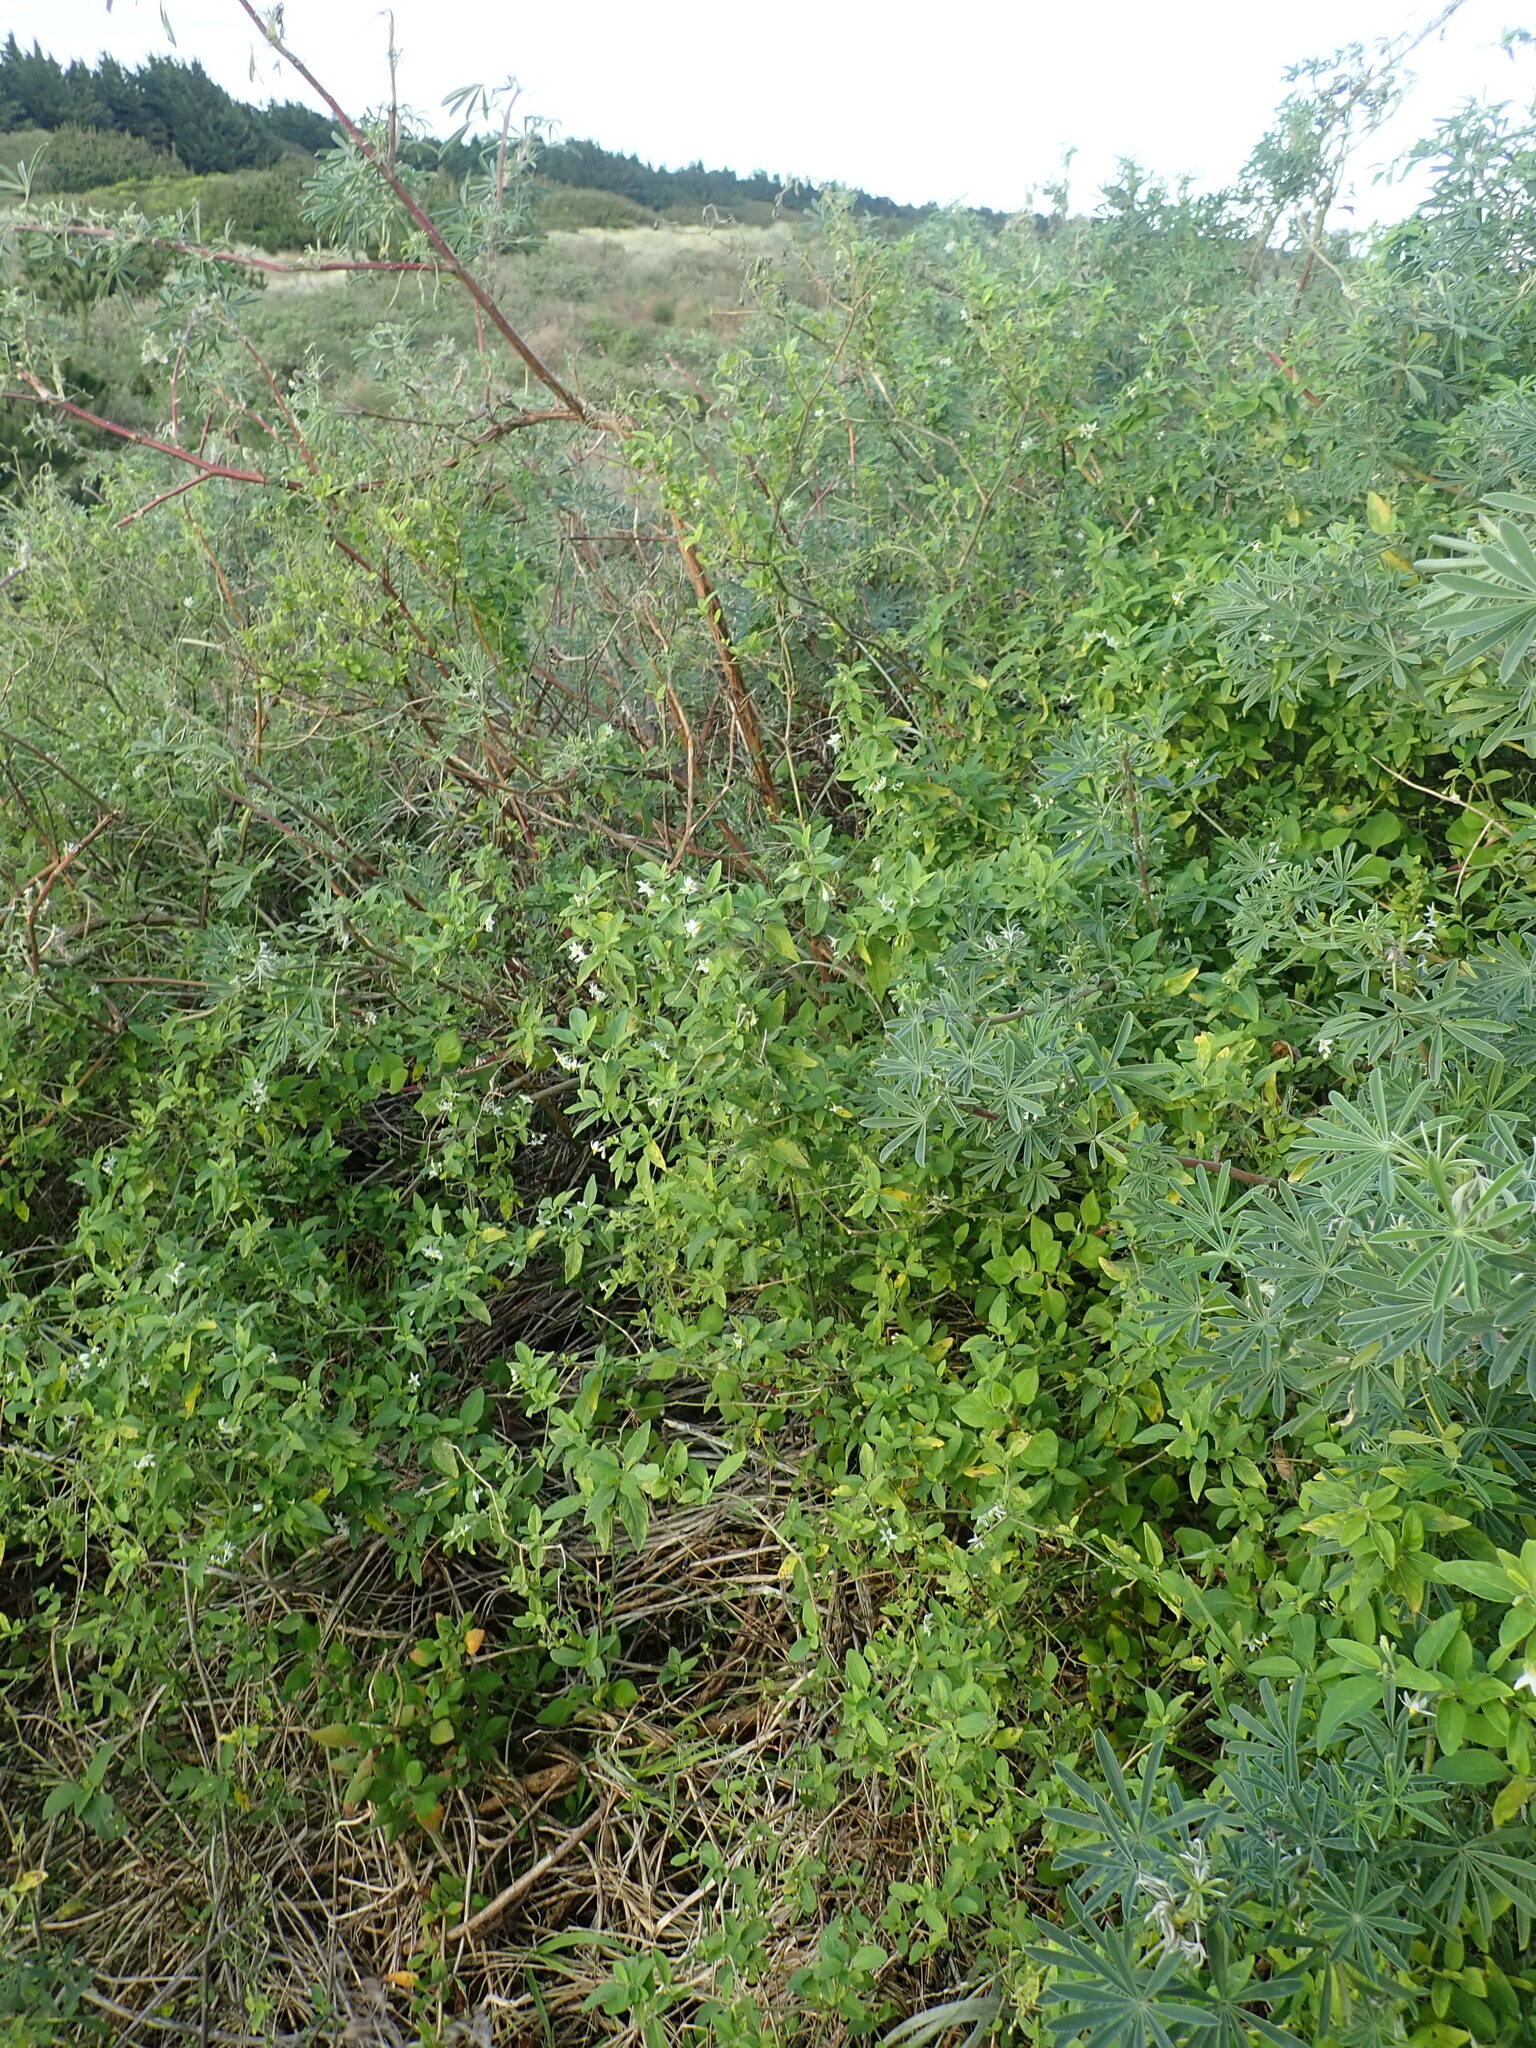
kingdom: Plantae
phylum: Tracheophyta
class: Magnoliopsida
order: Solanales
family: Solanaceae
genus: Solanum
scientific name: Solanum chenopodioides
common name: Tall nightshade
